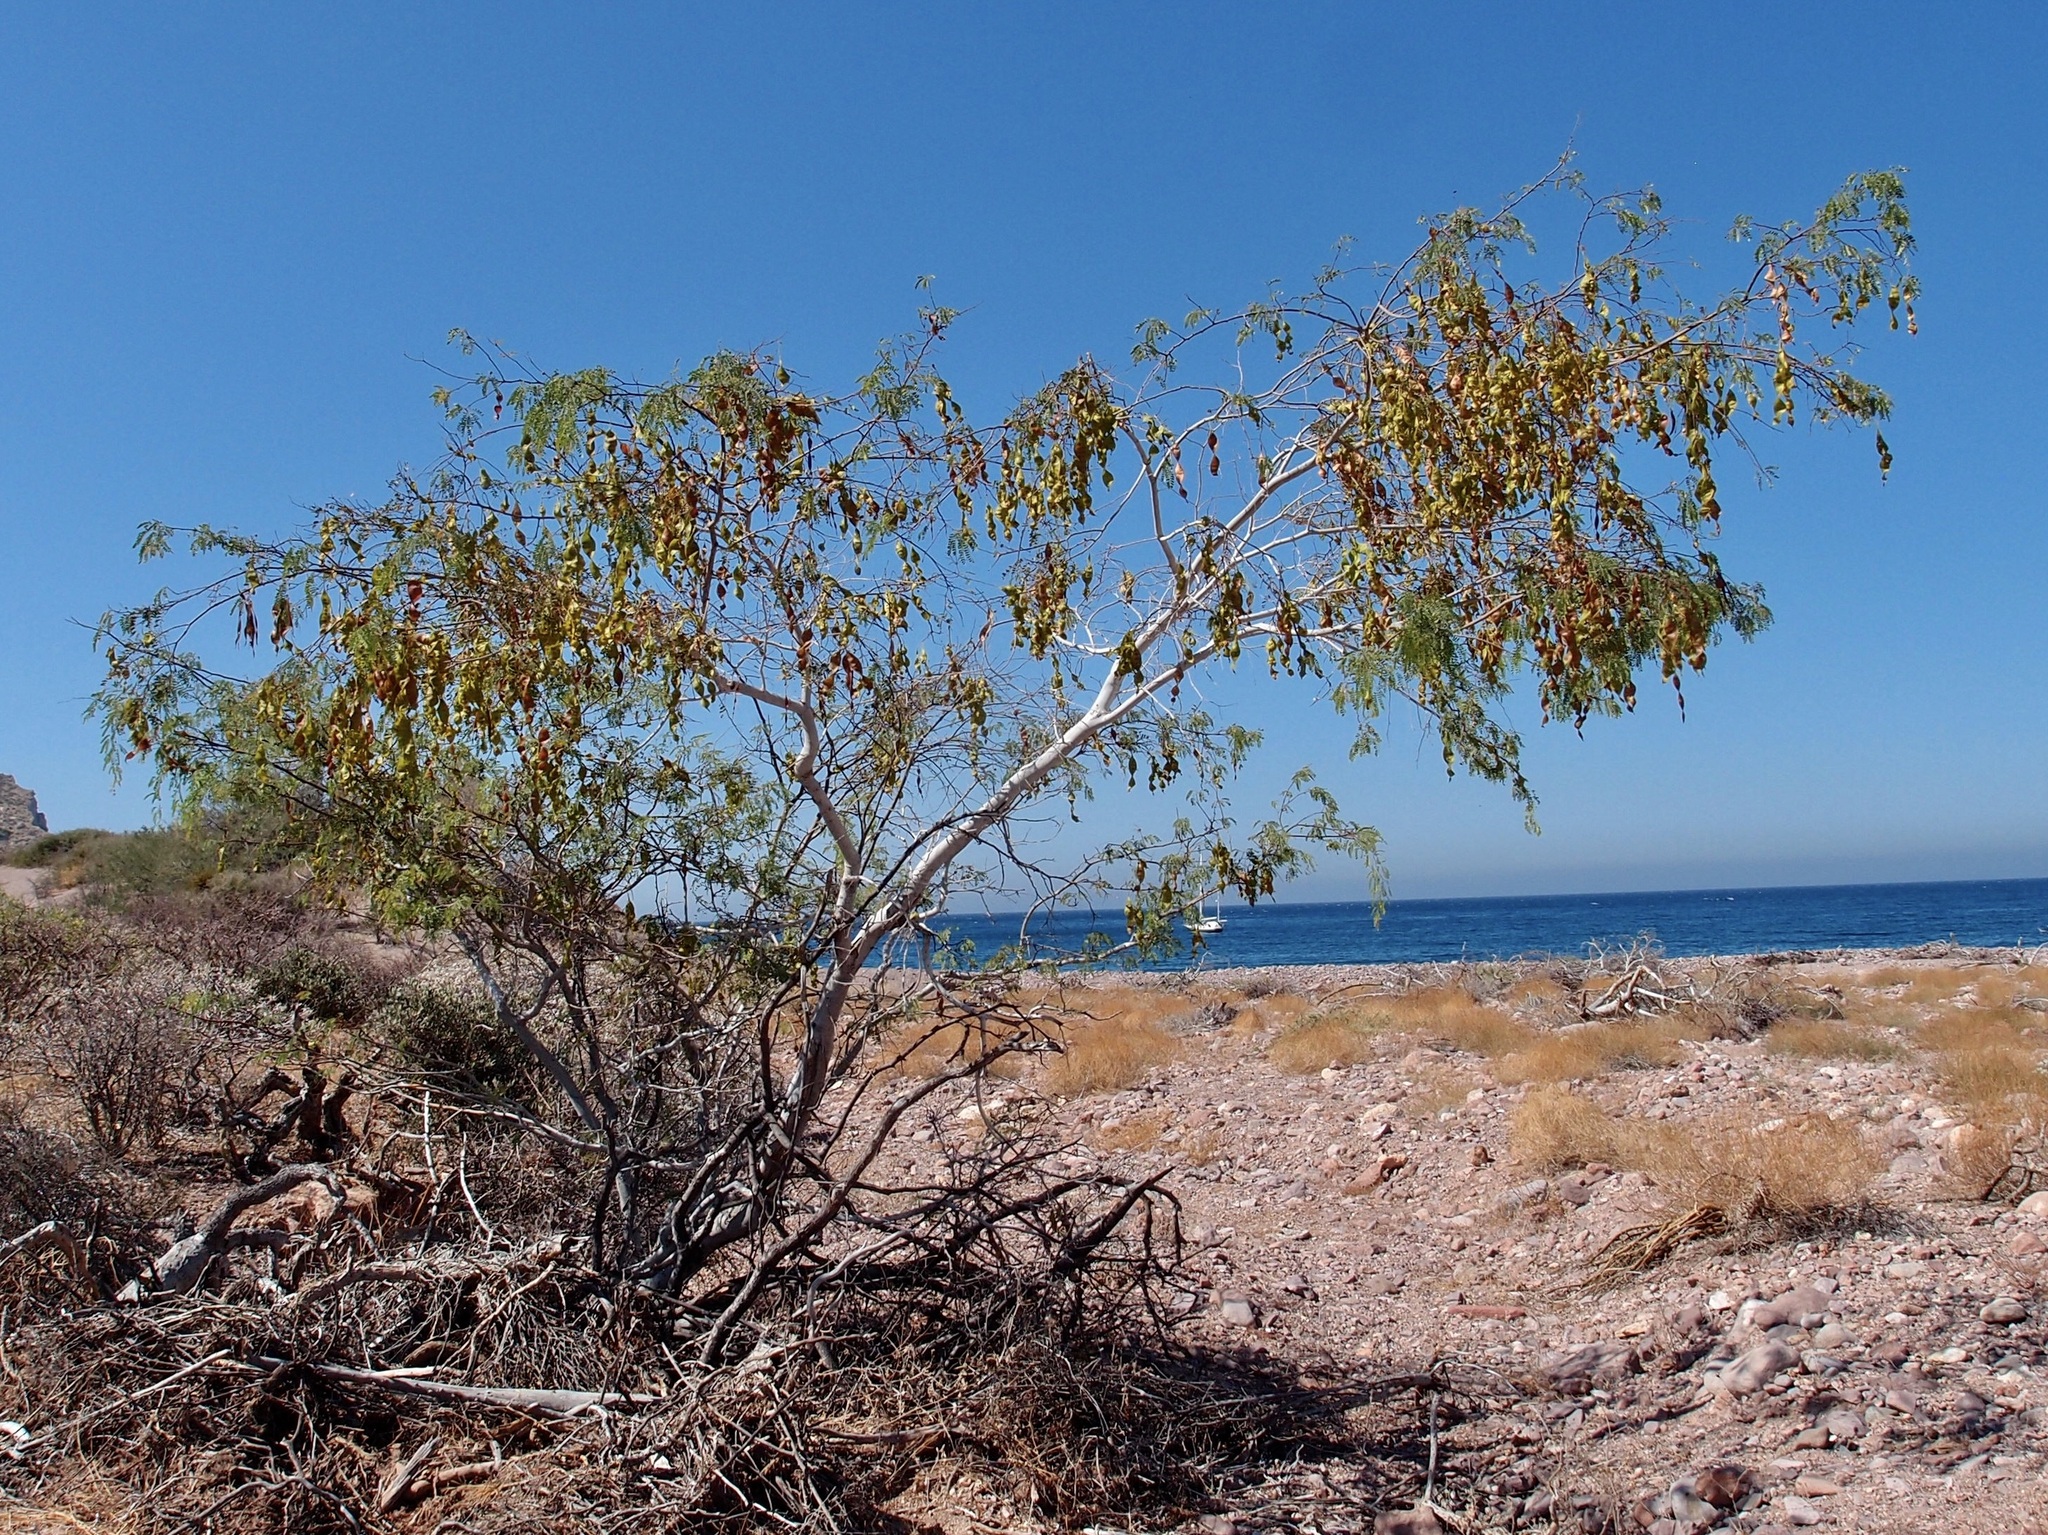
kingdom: Plantae
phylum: Tracheophyta
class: Magnoliopsida
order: Fabales
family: Fabaceae
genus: Lysiloma
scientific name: Lysiloma candidum
